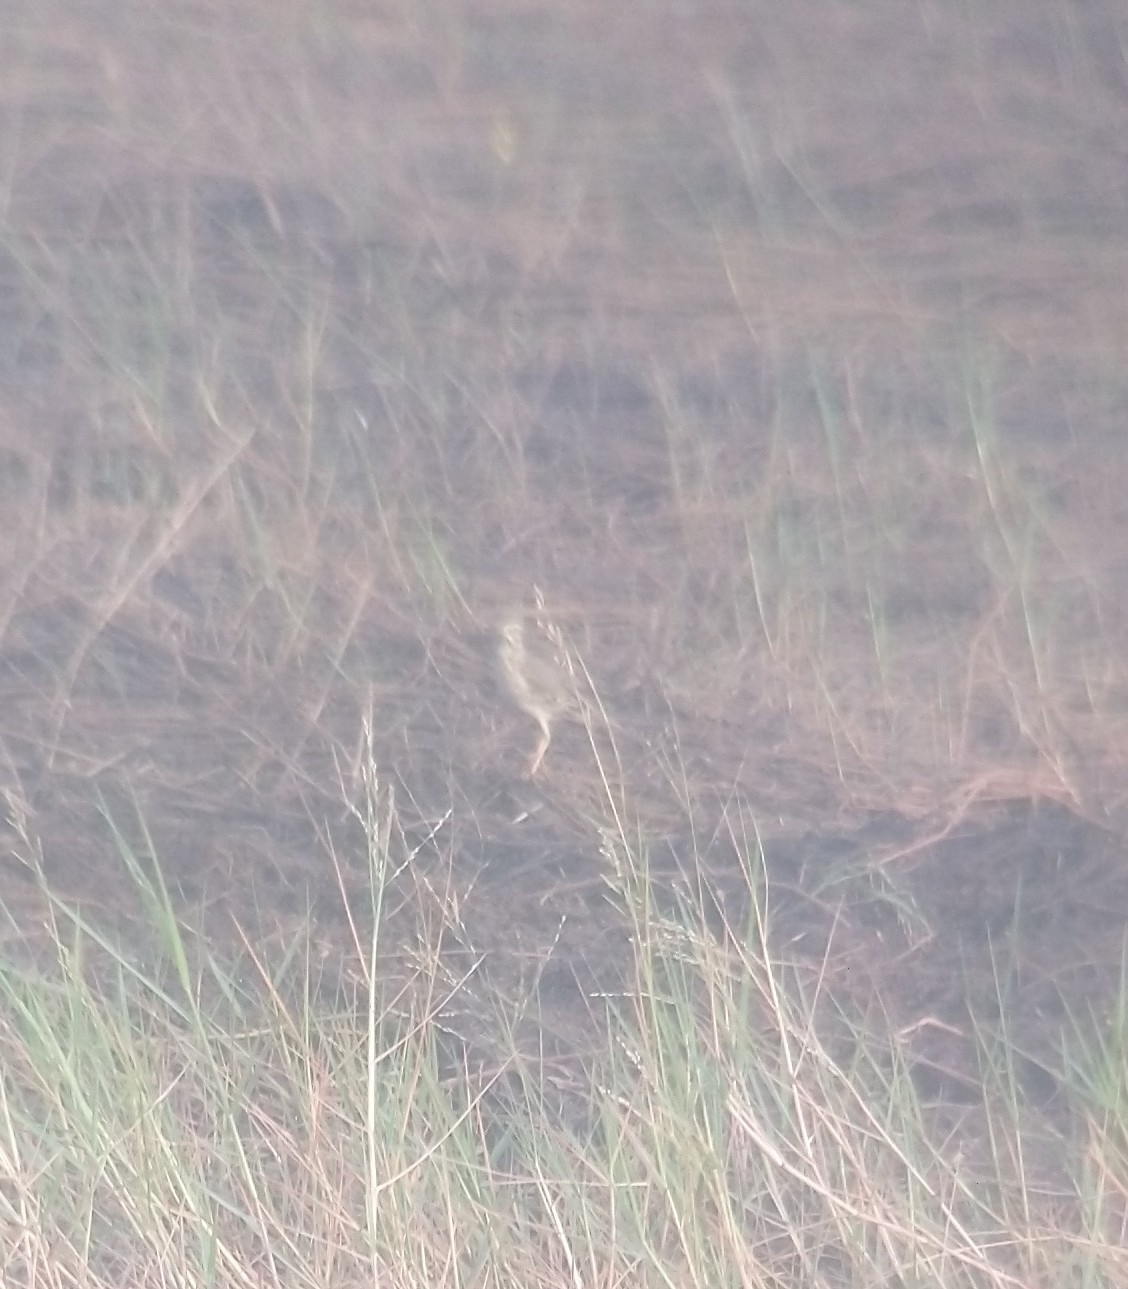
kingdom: Animalia
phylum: Chordata
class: Aves
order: Passeriformes
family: Motacillidae
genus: Anthus
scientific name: Anthus rufulus
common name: Paddyfield pipit
